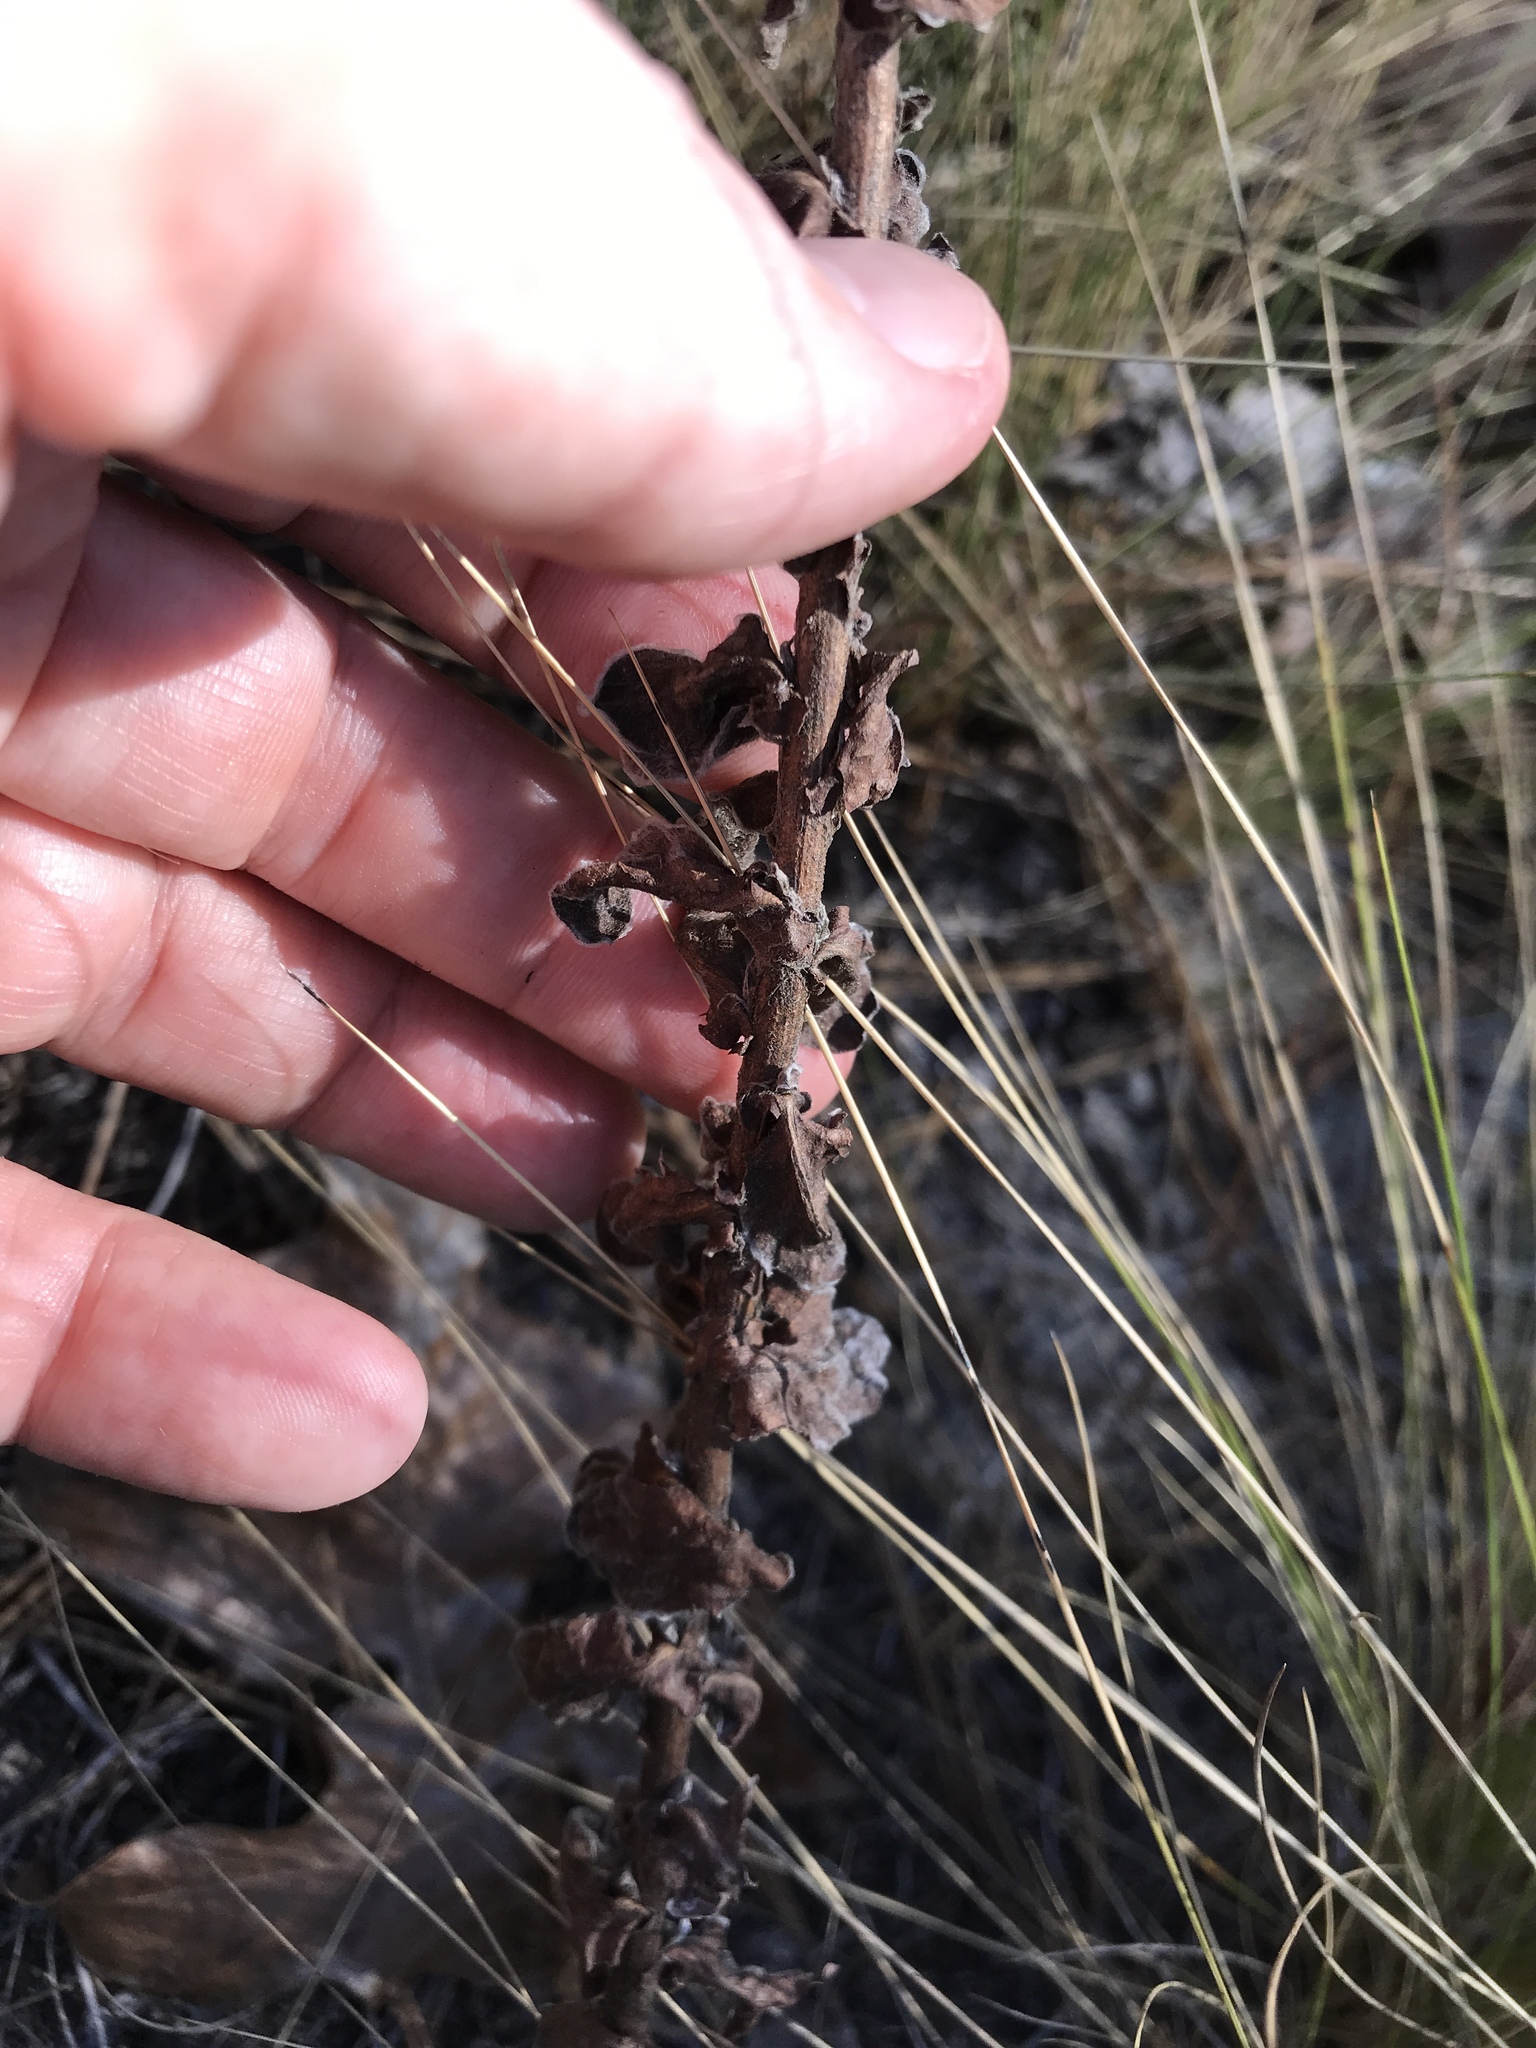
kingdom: Plantae
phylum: Tracheophyta
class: Magnoliopsida
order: Asterales
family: Asteraceae
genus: Chrysopsis
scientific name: Chrysopsis gossypina
